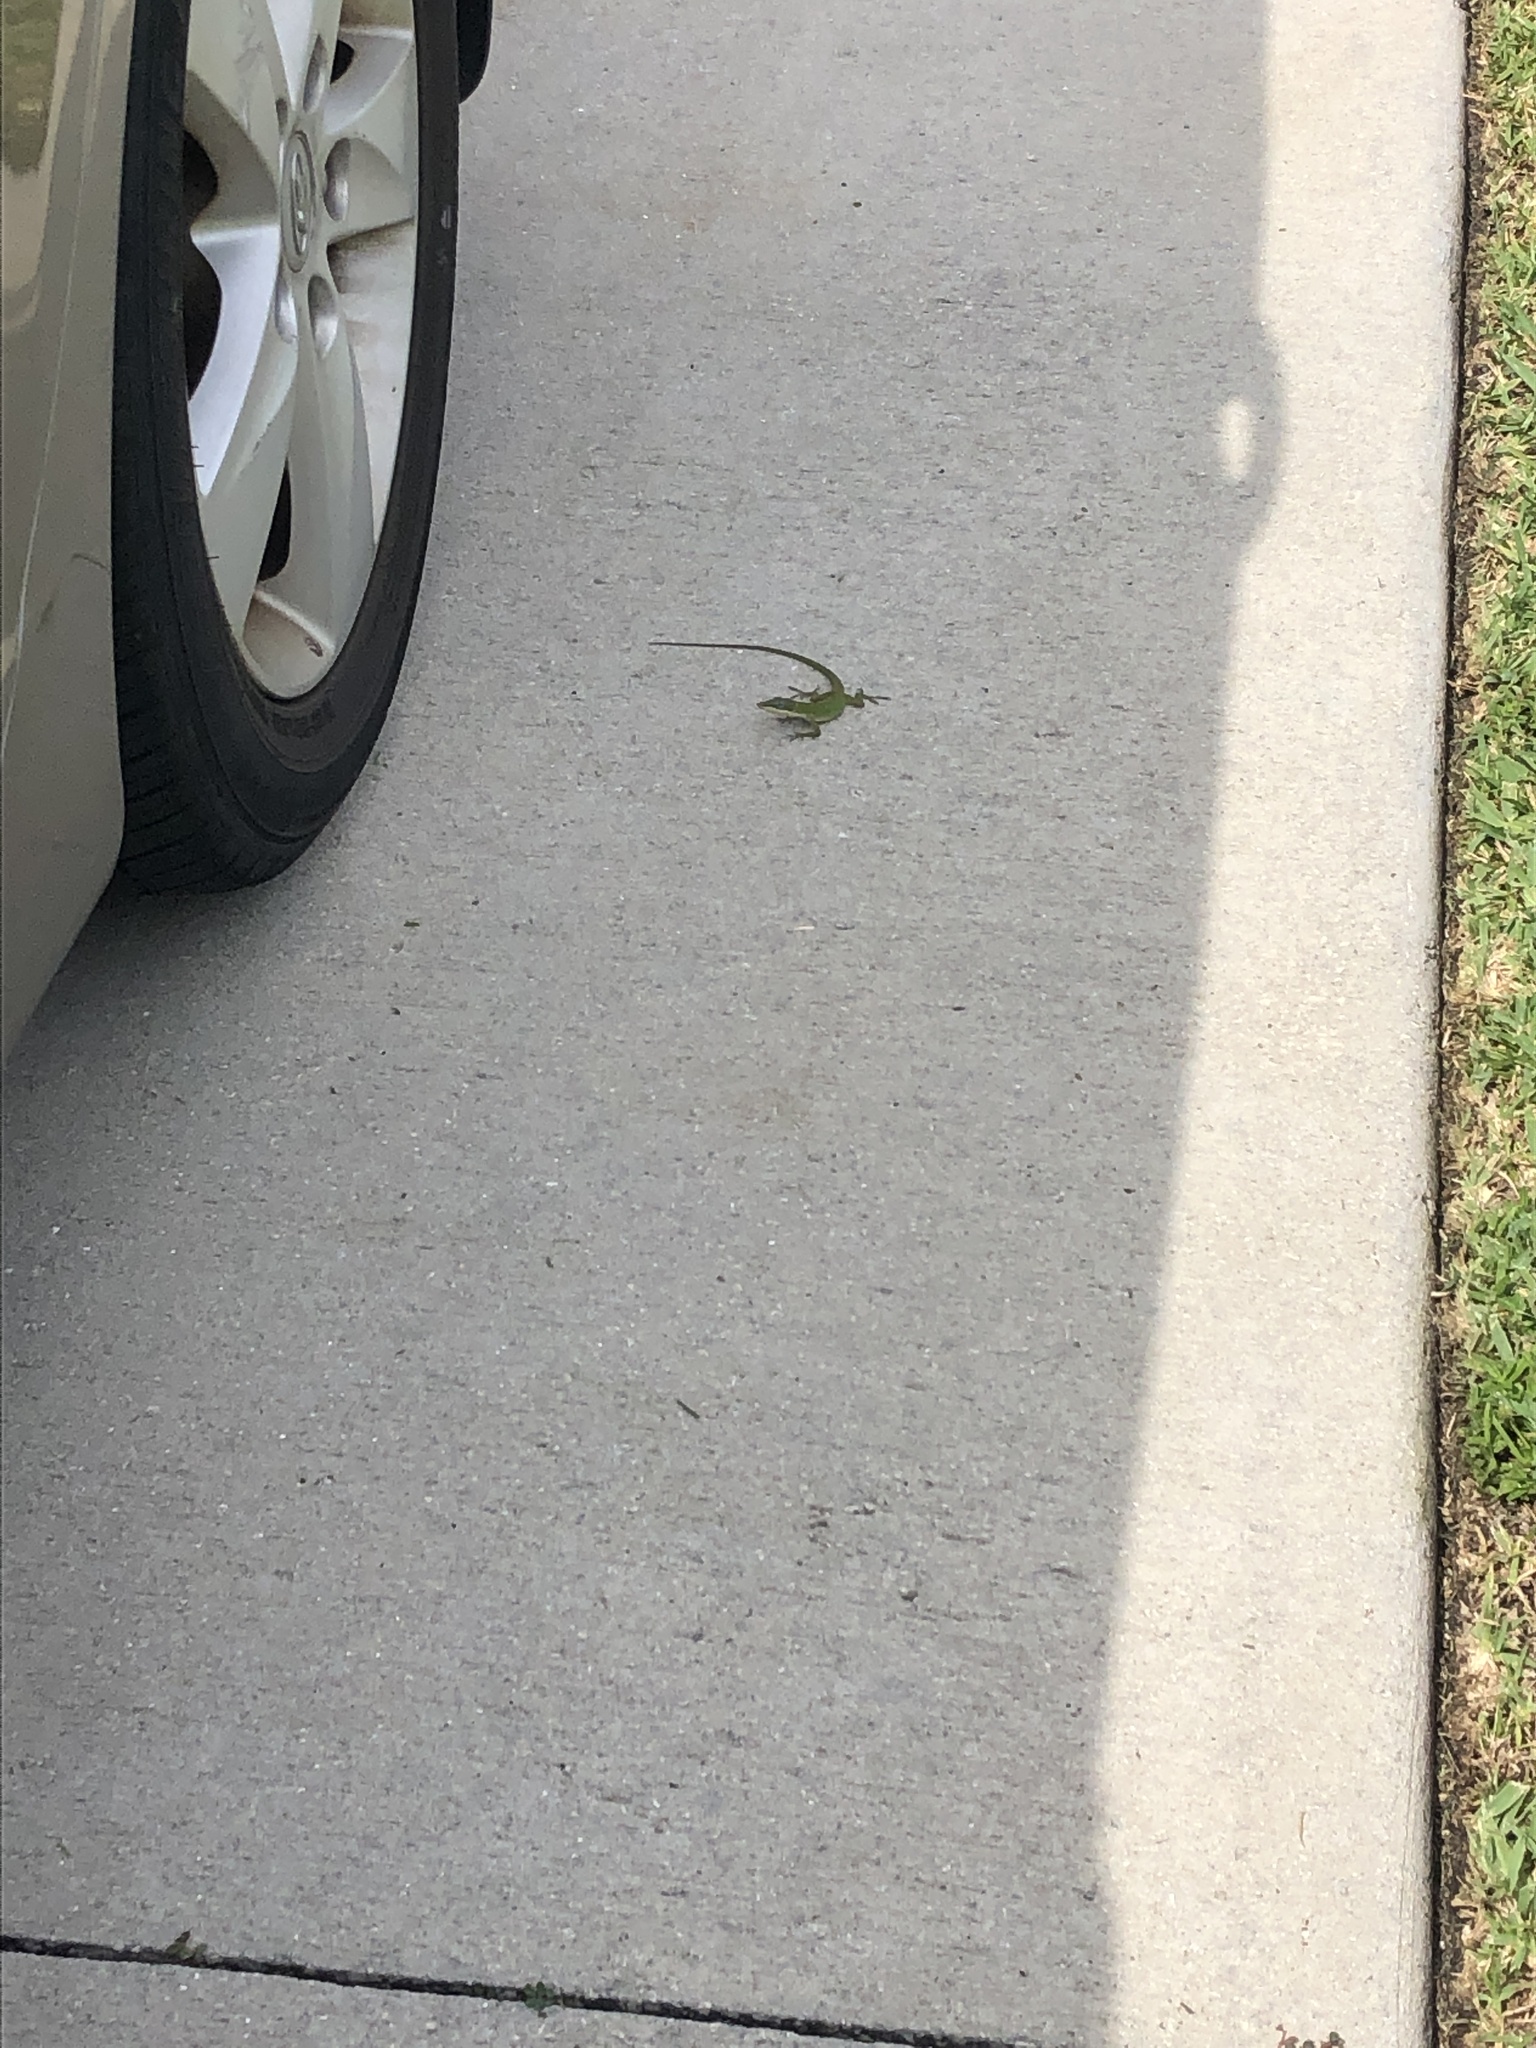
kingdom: Animalia
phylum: Chordata
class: Squamata
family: Dactyloidae
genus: Anolis
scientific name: Anolis carolinensis
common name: Green anole
